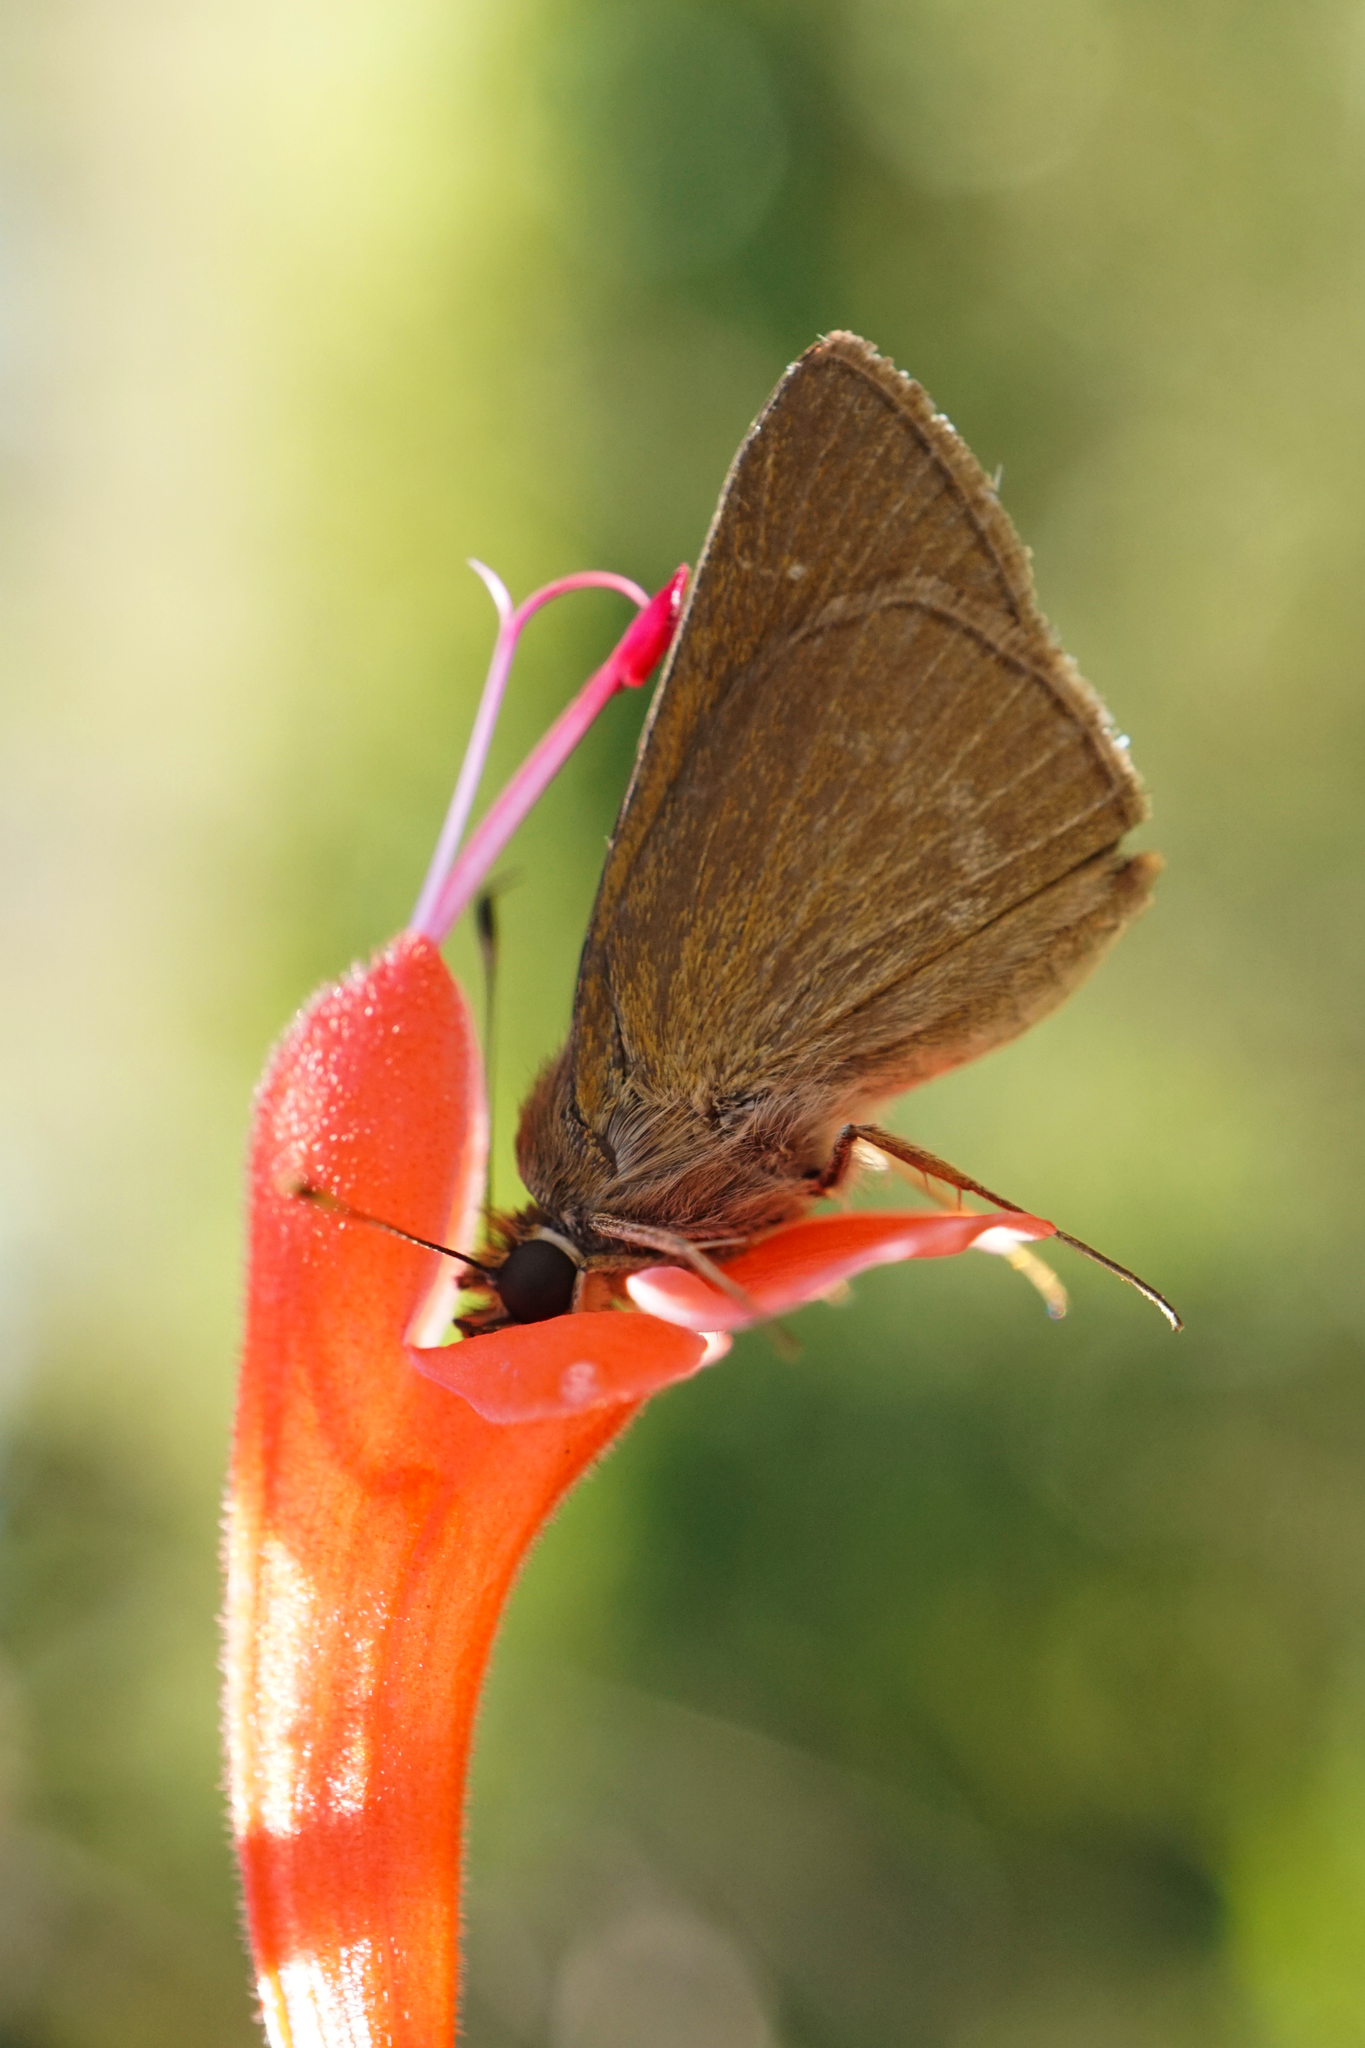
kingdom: Animalia
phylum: Arthropoda
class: Insecta
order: Lepidoptera
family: Hesperiidae
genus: Cymaenes
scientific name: Cymaenes tripunctus
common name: Dingy dotted skipper
